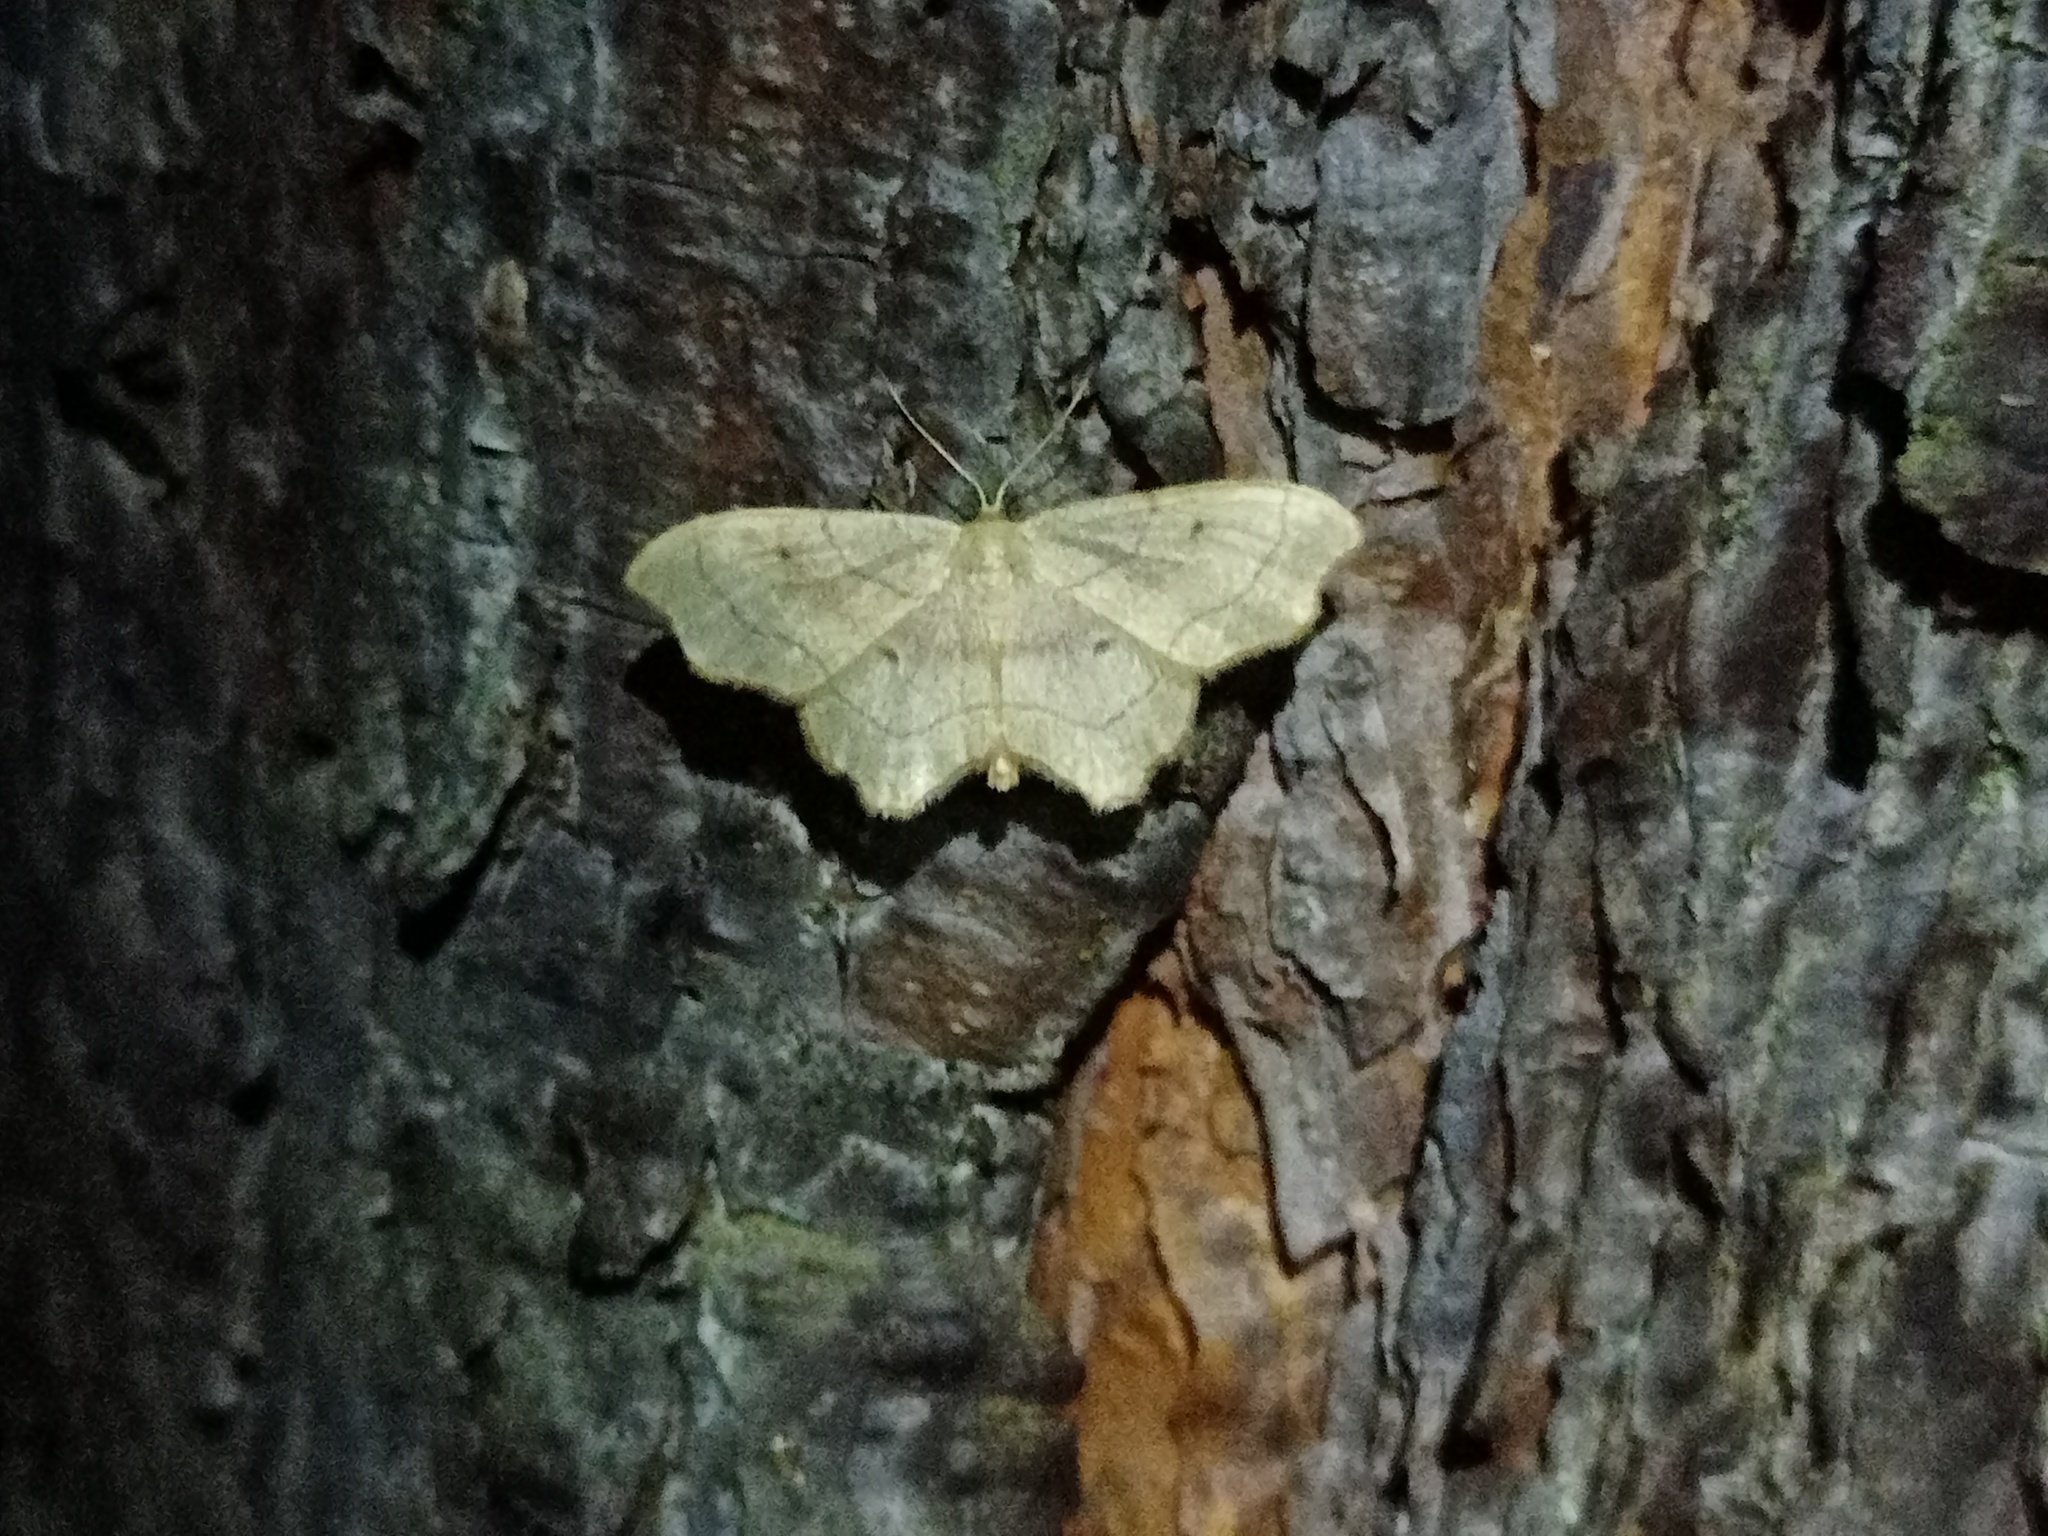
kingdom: Animalia
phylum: Arthropoda
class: Insecta
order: Lepidoptera
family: Geometridae
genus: Idaea
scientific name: Idaea emarginata
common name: Small scallop
